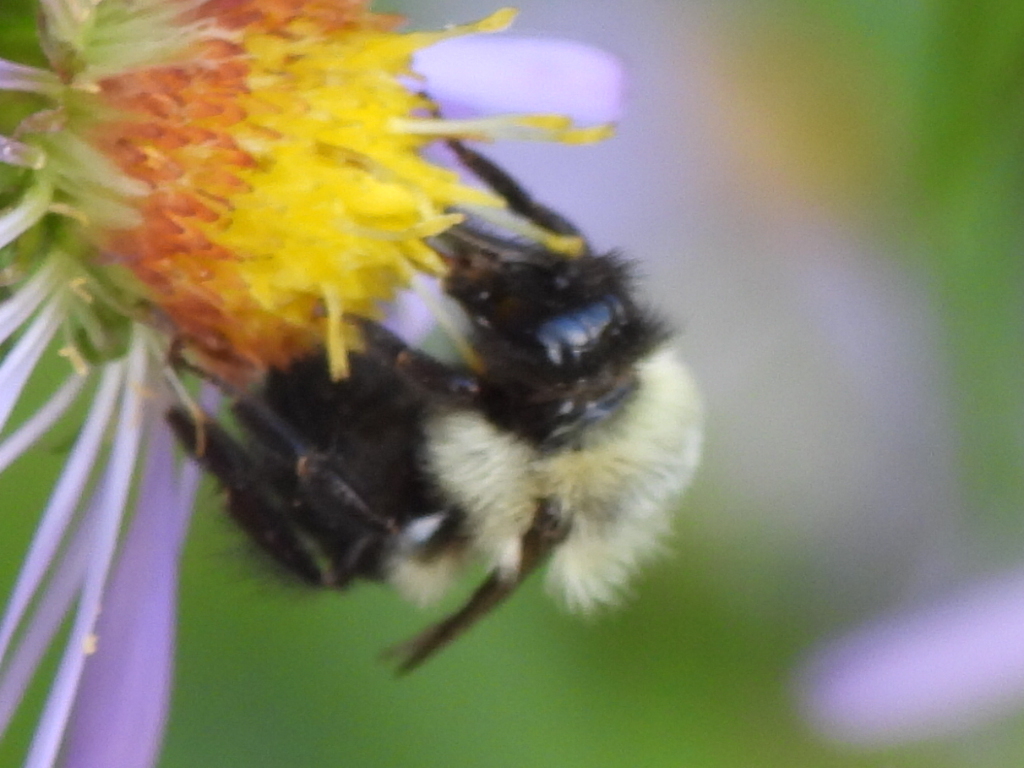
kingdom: Animalia
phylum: Arthropoda
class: Insecta
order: Hymenoptera
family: Apidae
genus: Bombus
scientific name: Bombus impatiens
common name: Common eastern bumble bee
